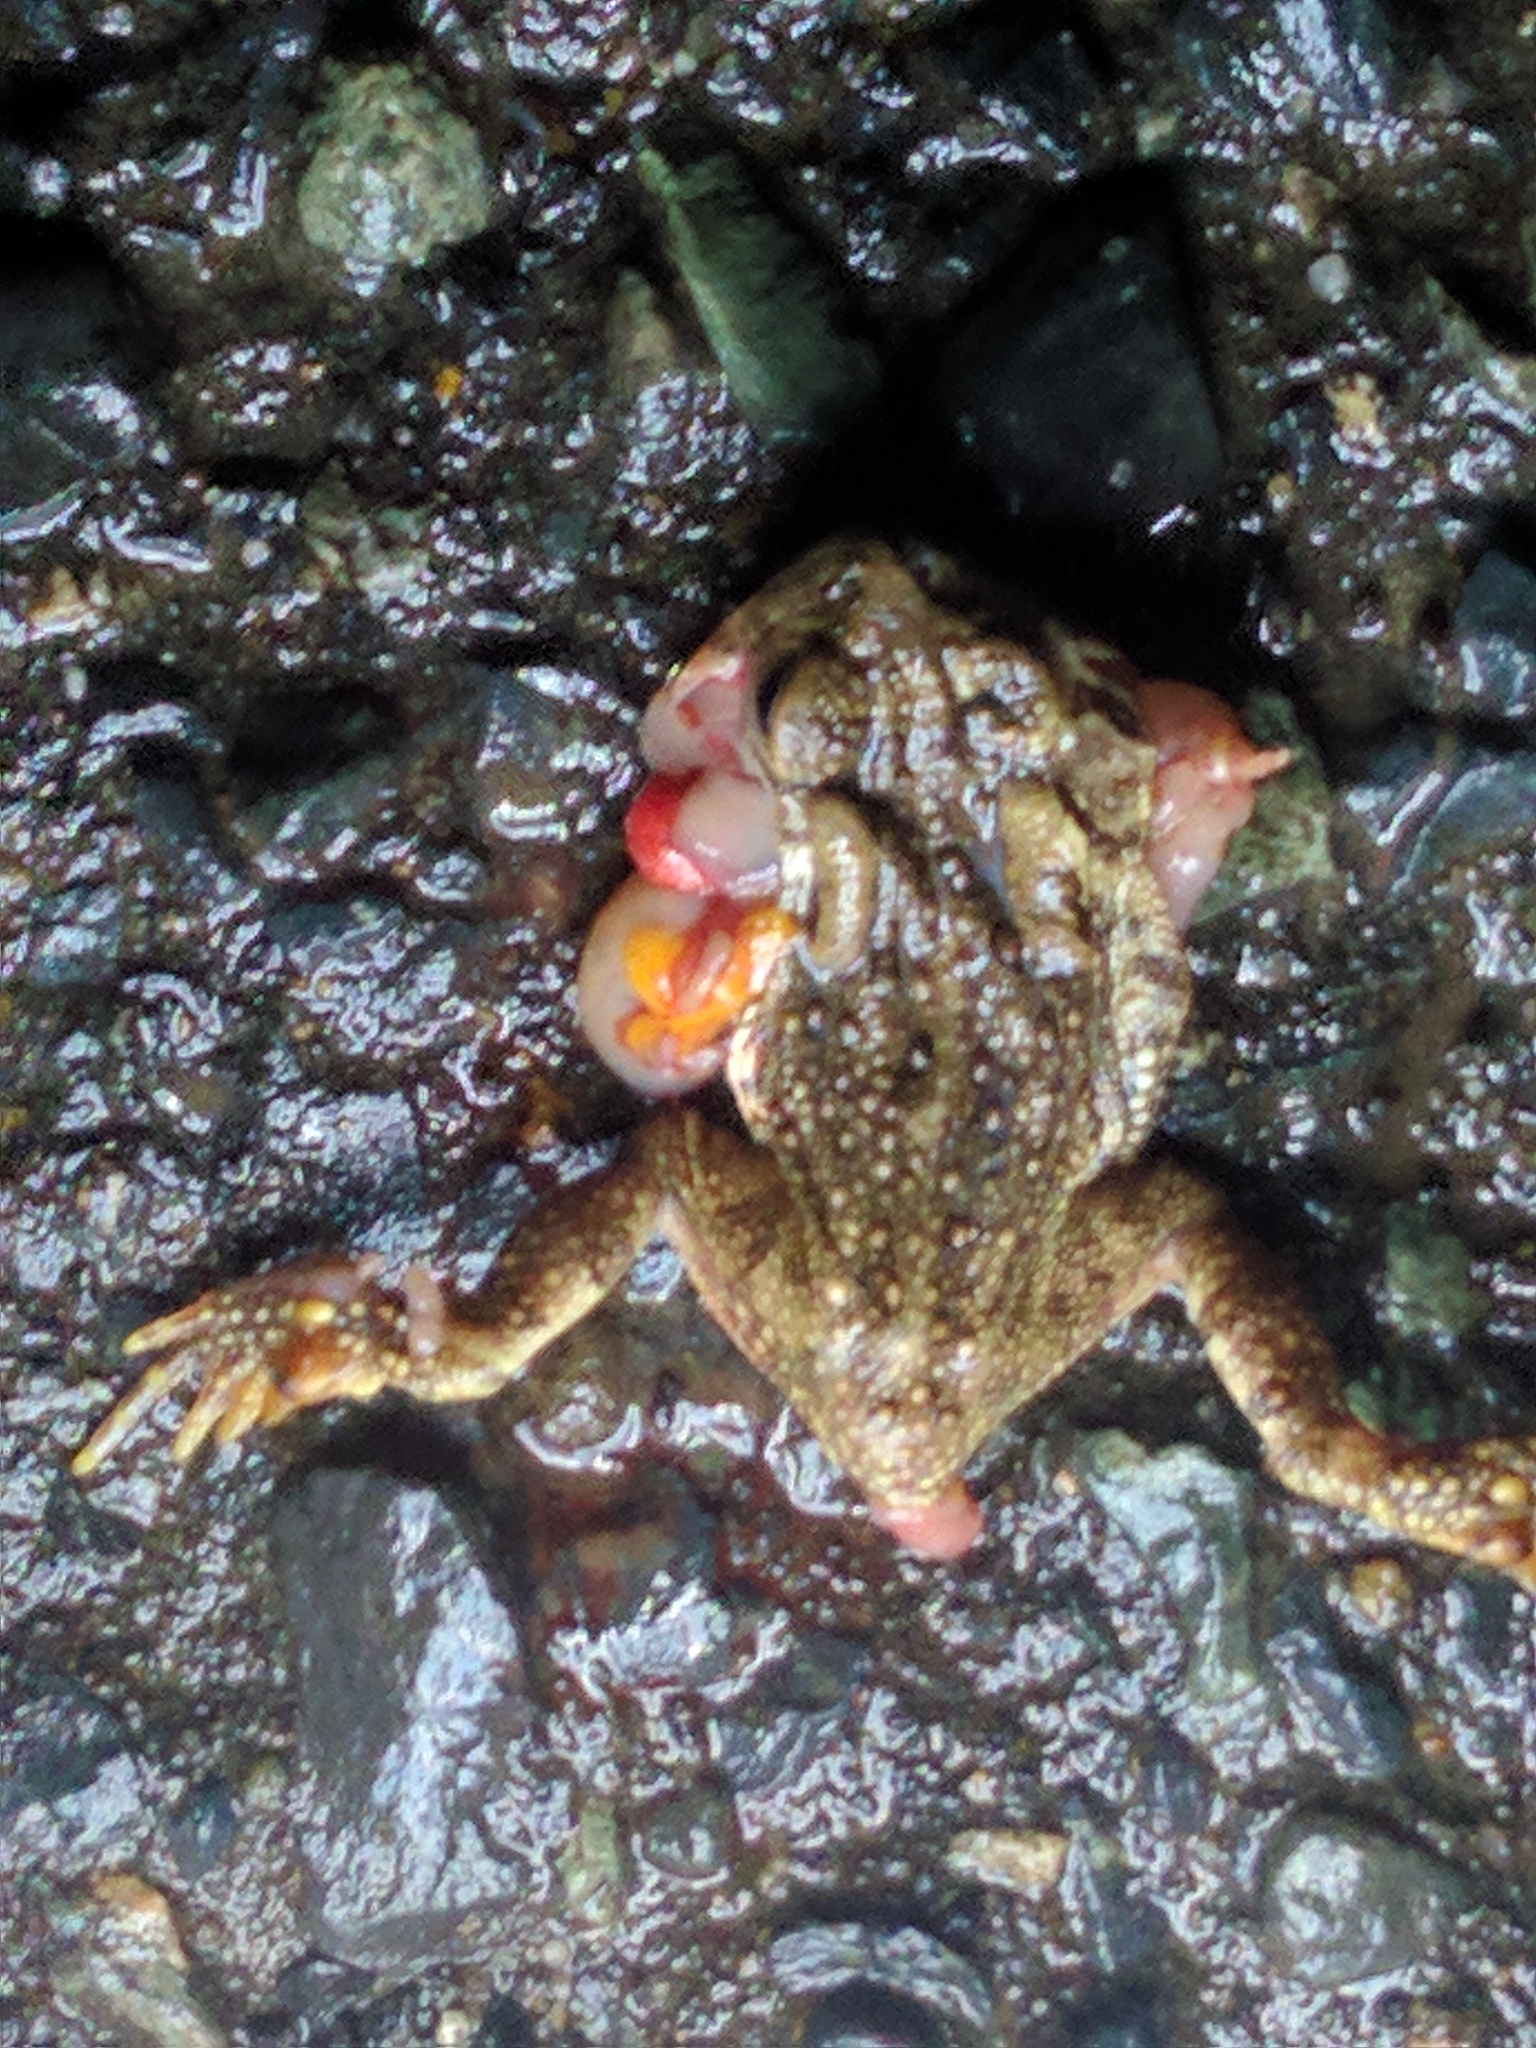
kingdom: Animalia
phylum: Chordata
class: Amphibia
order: Anura
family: Bufonidae
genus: Anaxyrus
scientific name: Anaxyrus fowleri
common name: Fowler's toad
